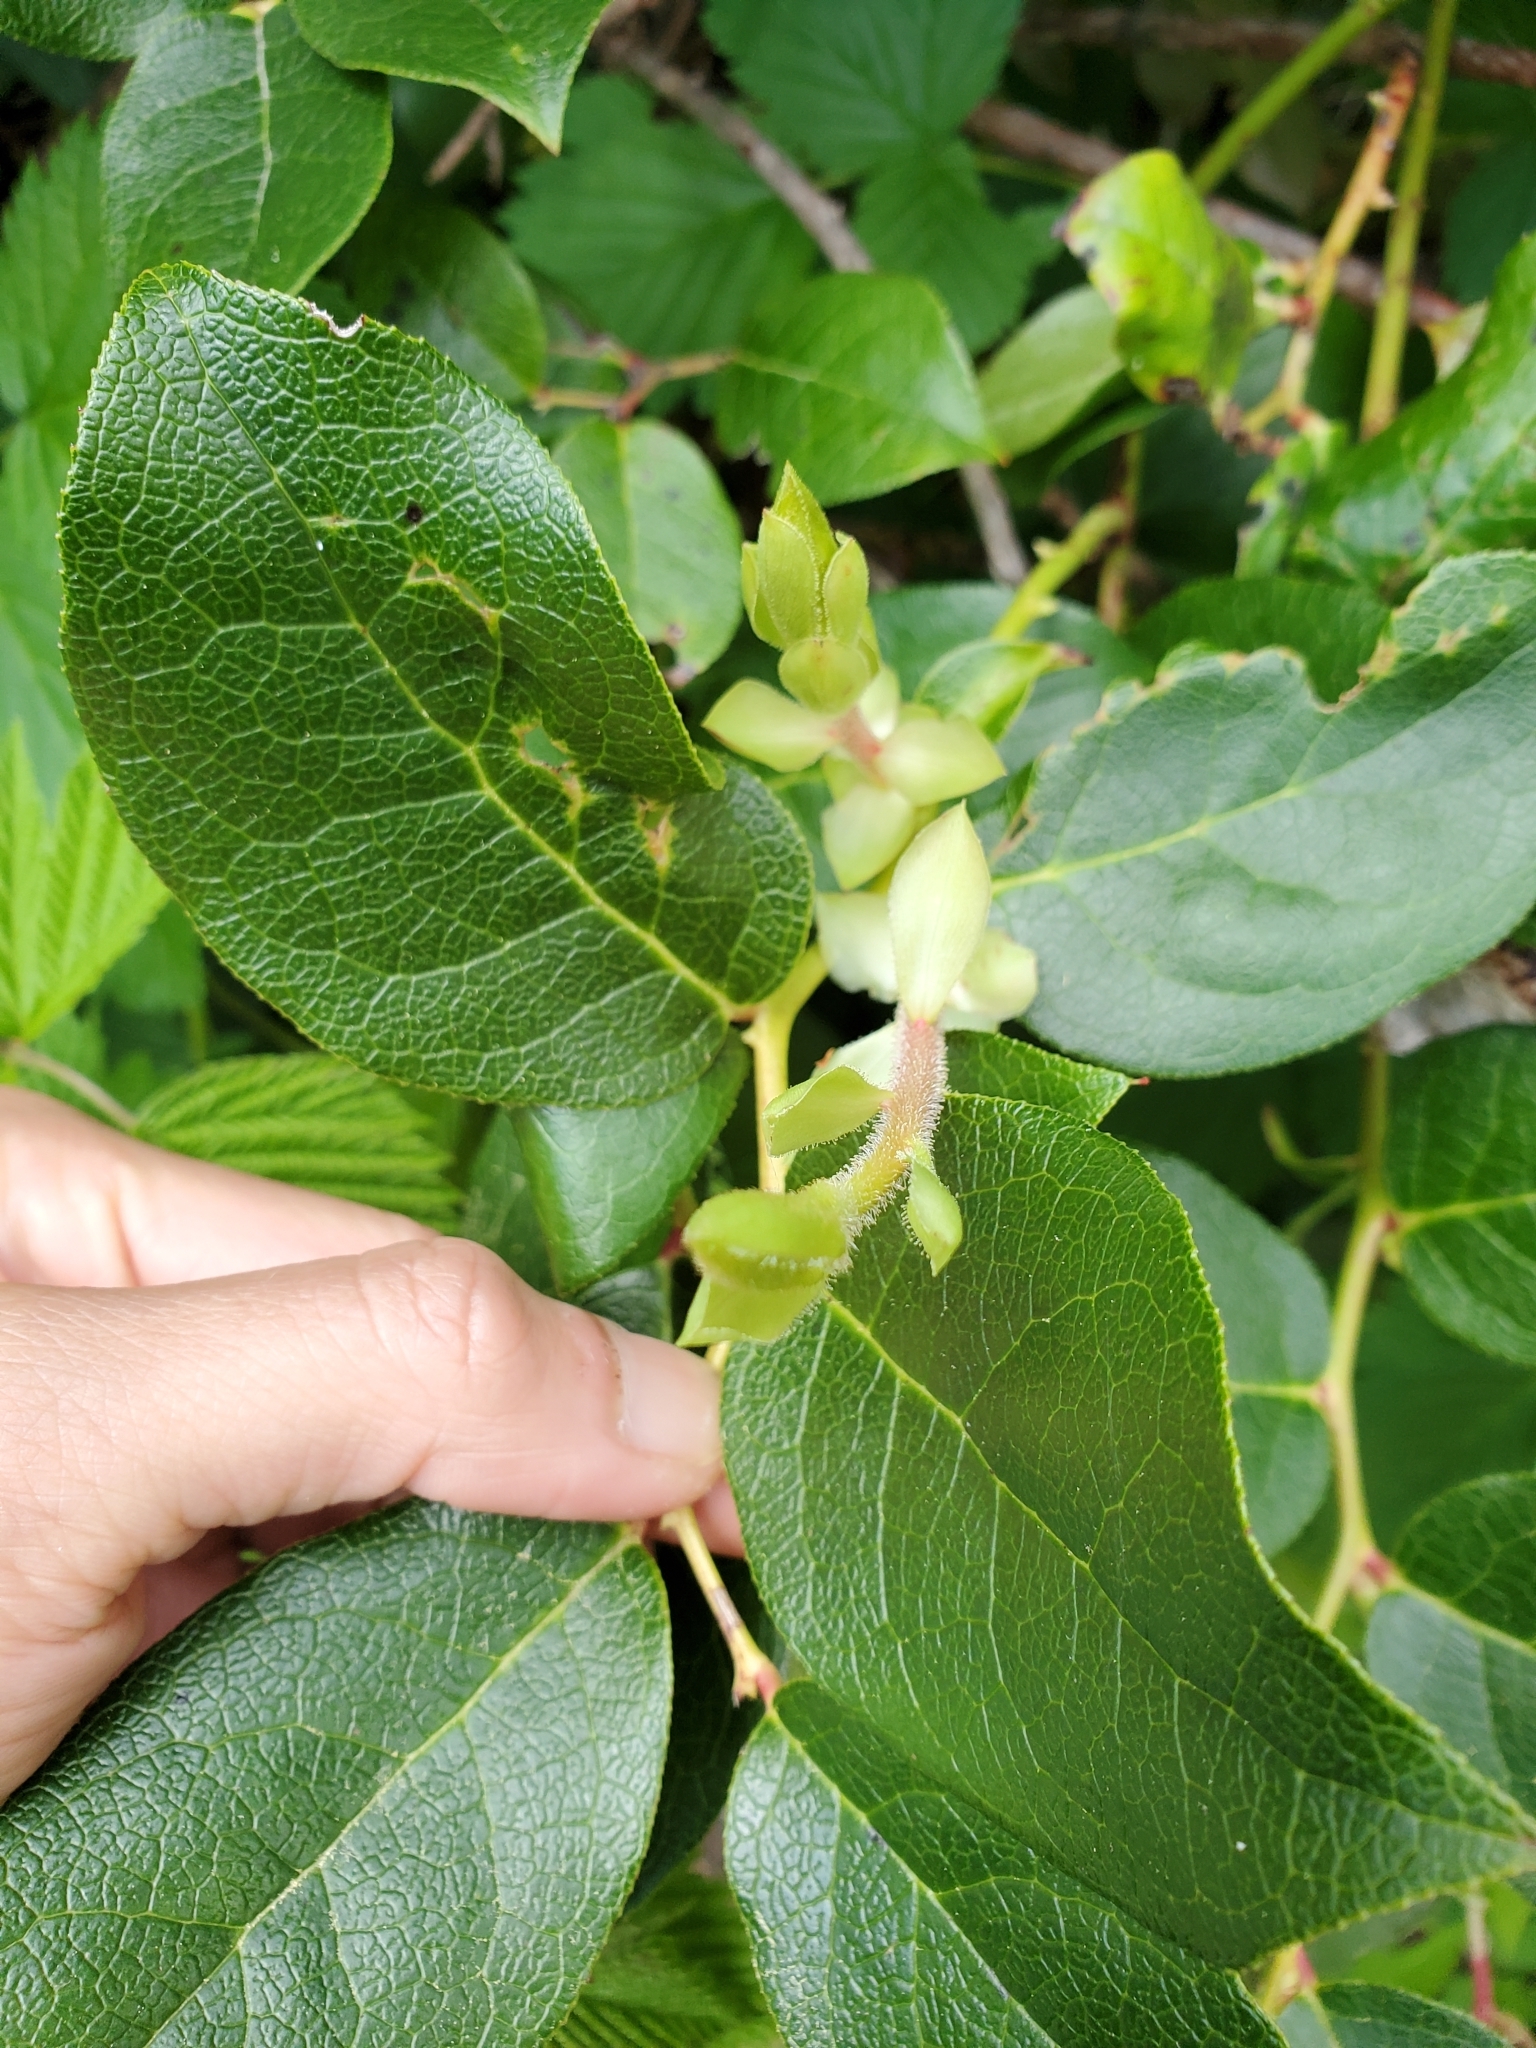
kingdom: Plantae
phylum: Tracheophyta
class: Magnoliopsida
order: Ericales
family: Ericaceae
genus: Gaultheria
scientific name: Gaultheria shallon
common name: Shallon
